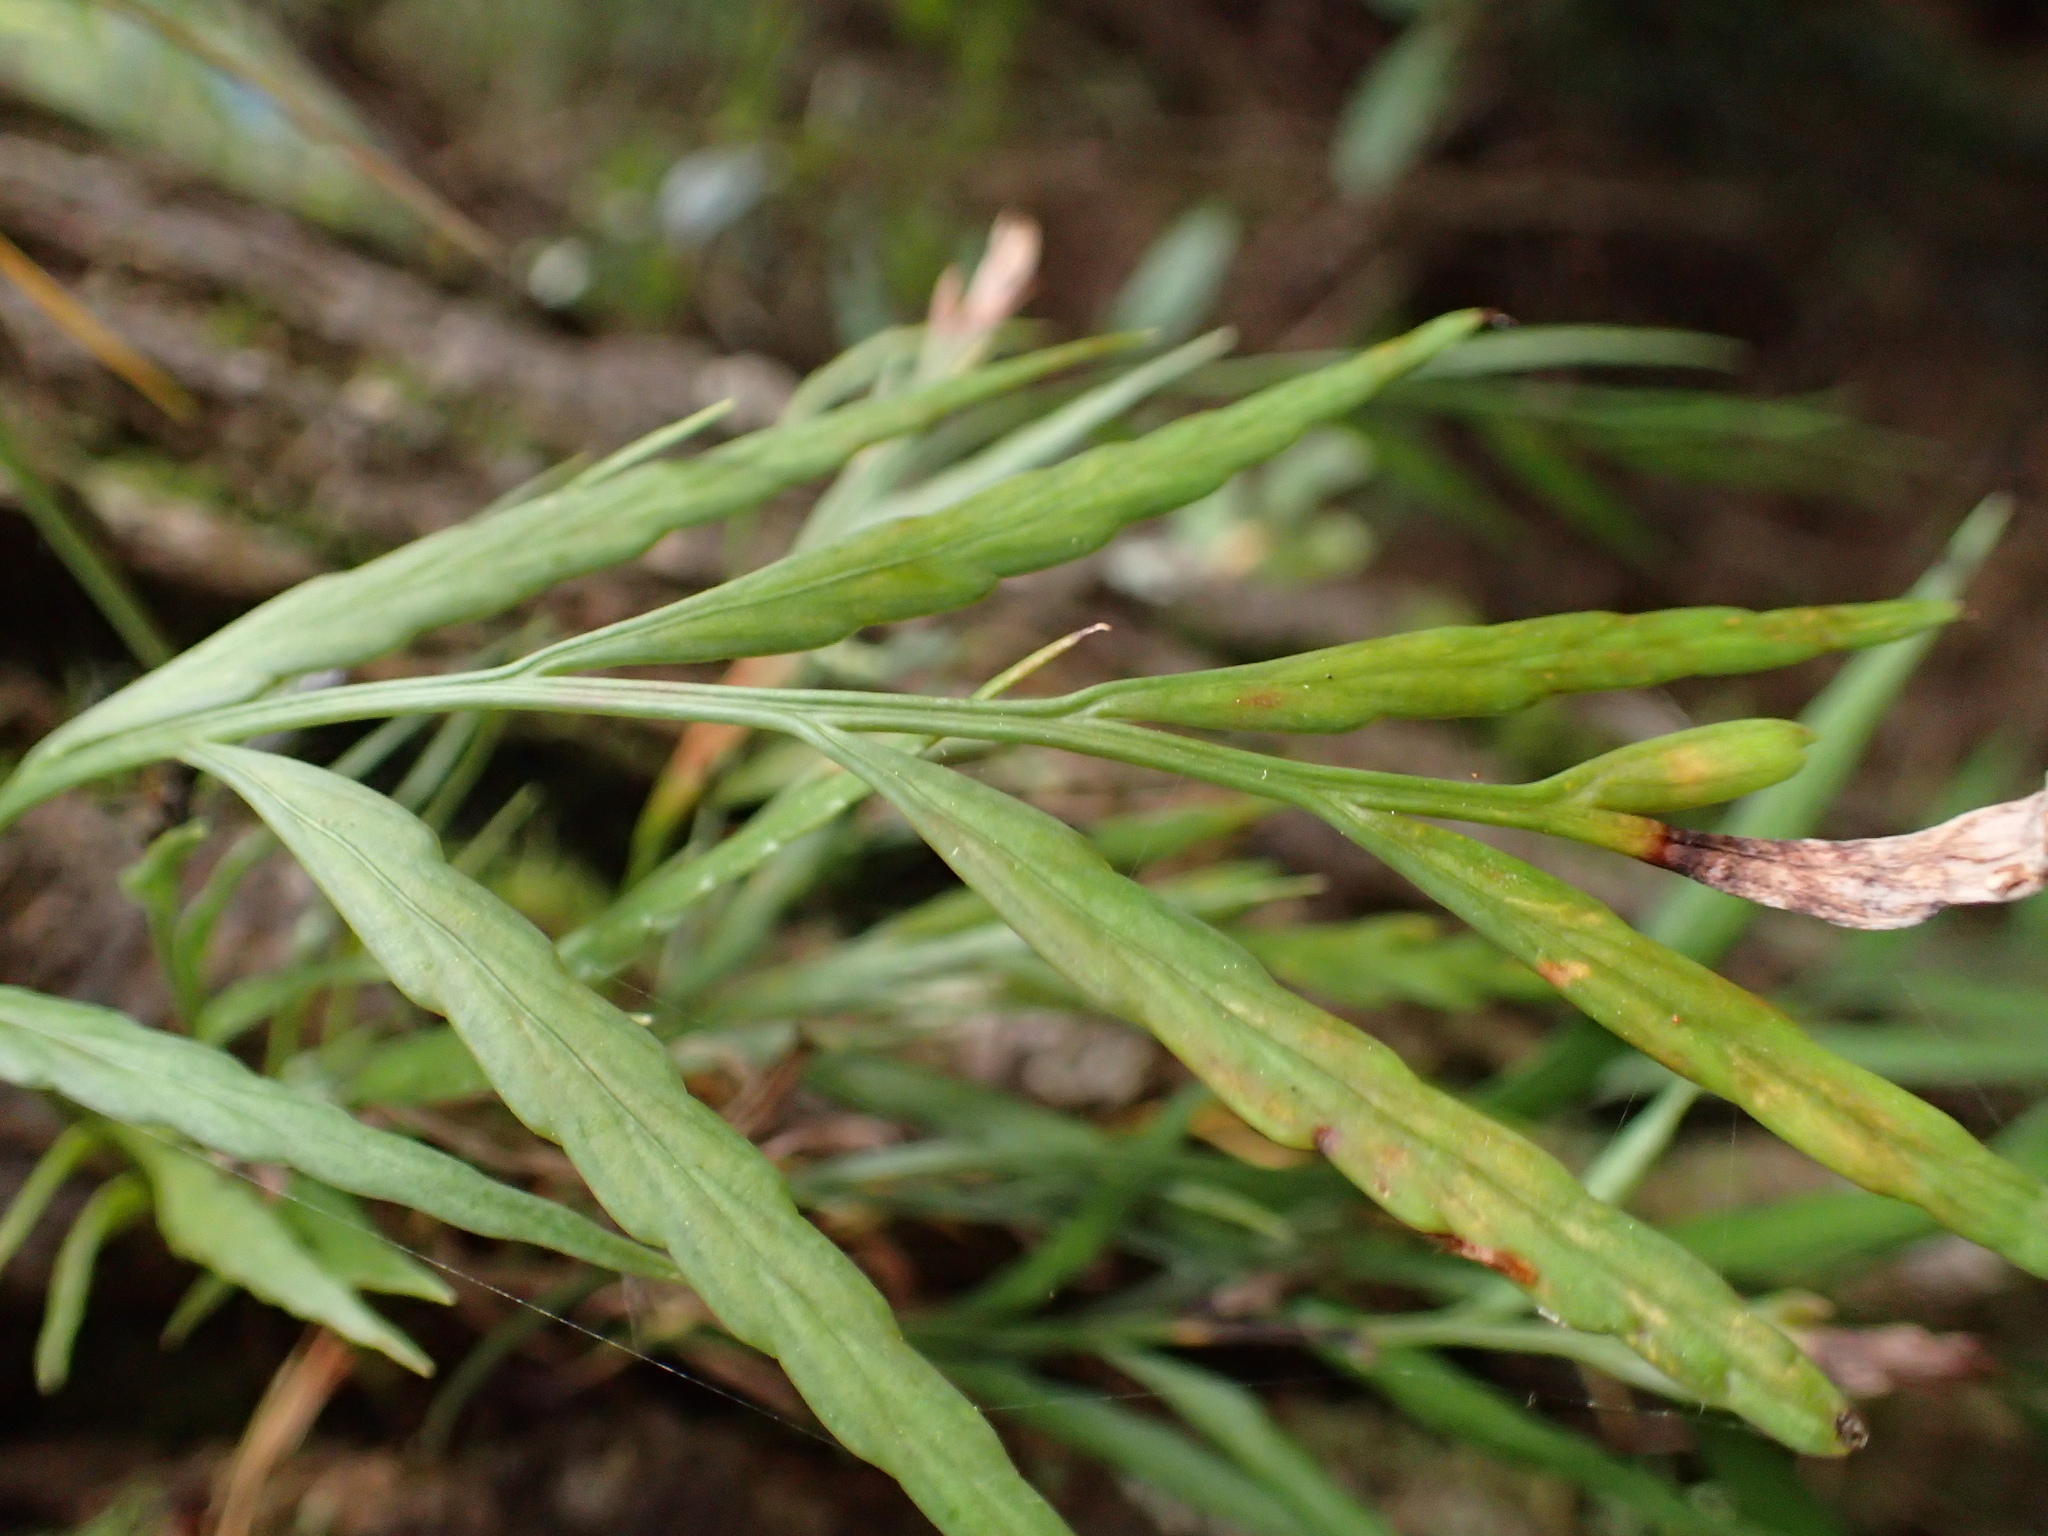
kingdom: Plantae
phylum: Tracheophyta
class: Polypodiopsida
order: Polypodiales
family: Aspleniaceae
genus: Asplenium
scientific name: Asplenium flaccidum
